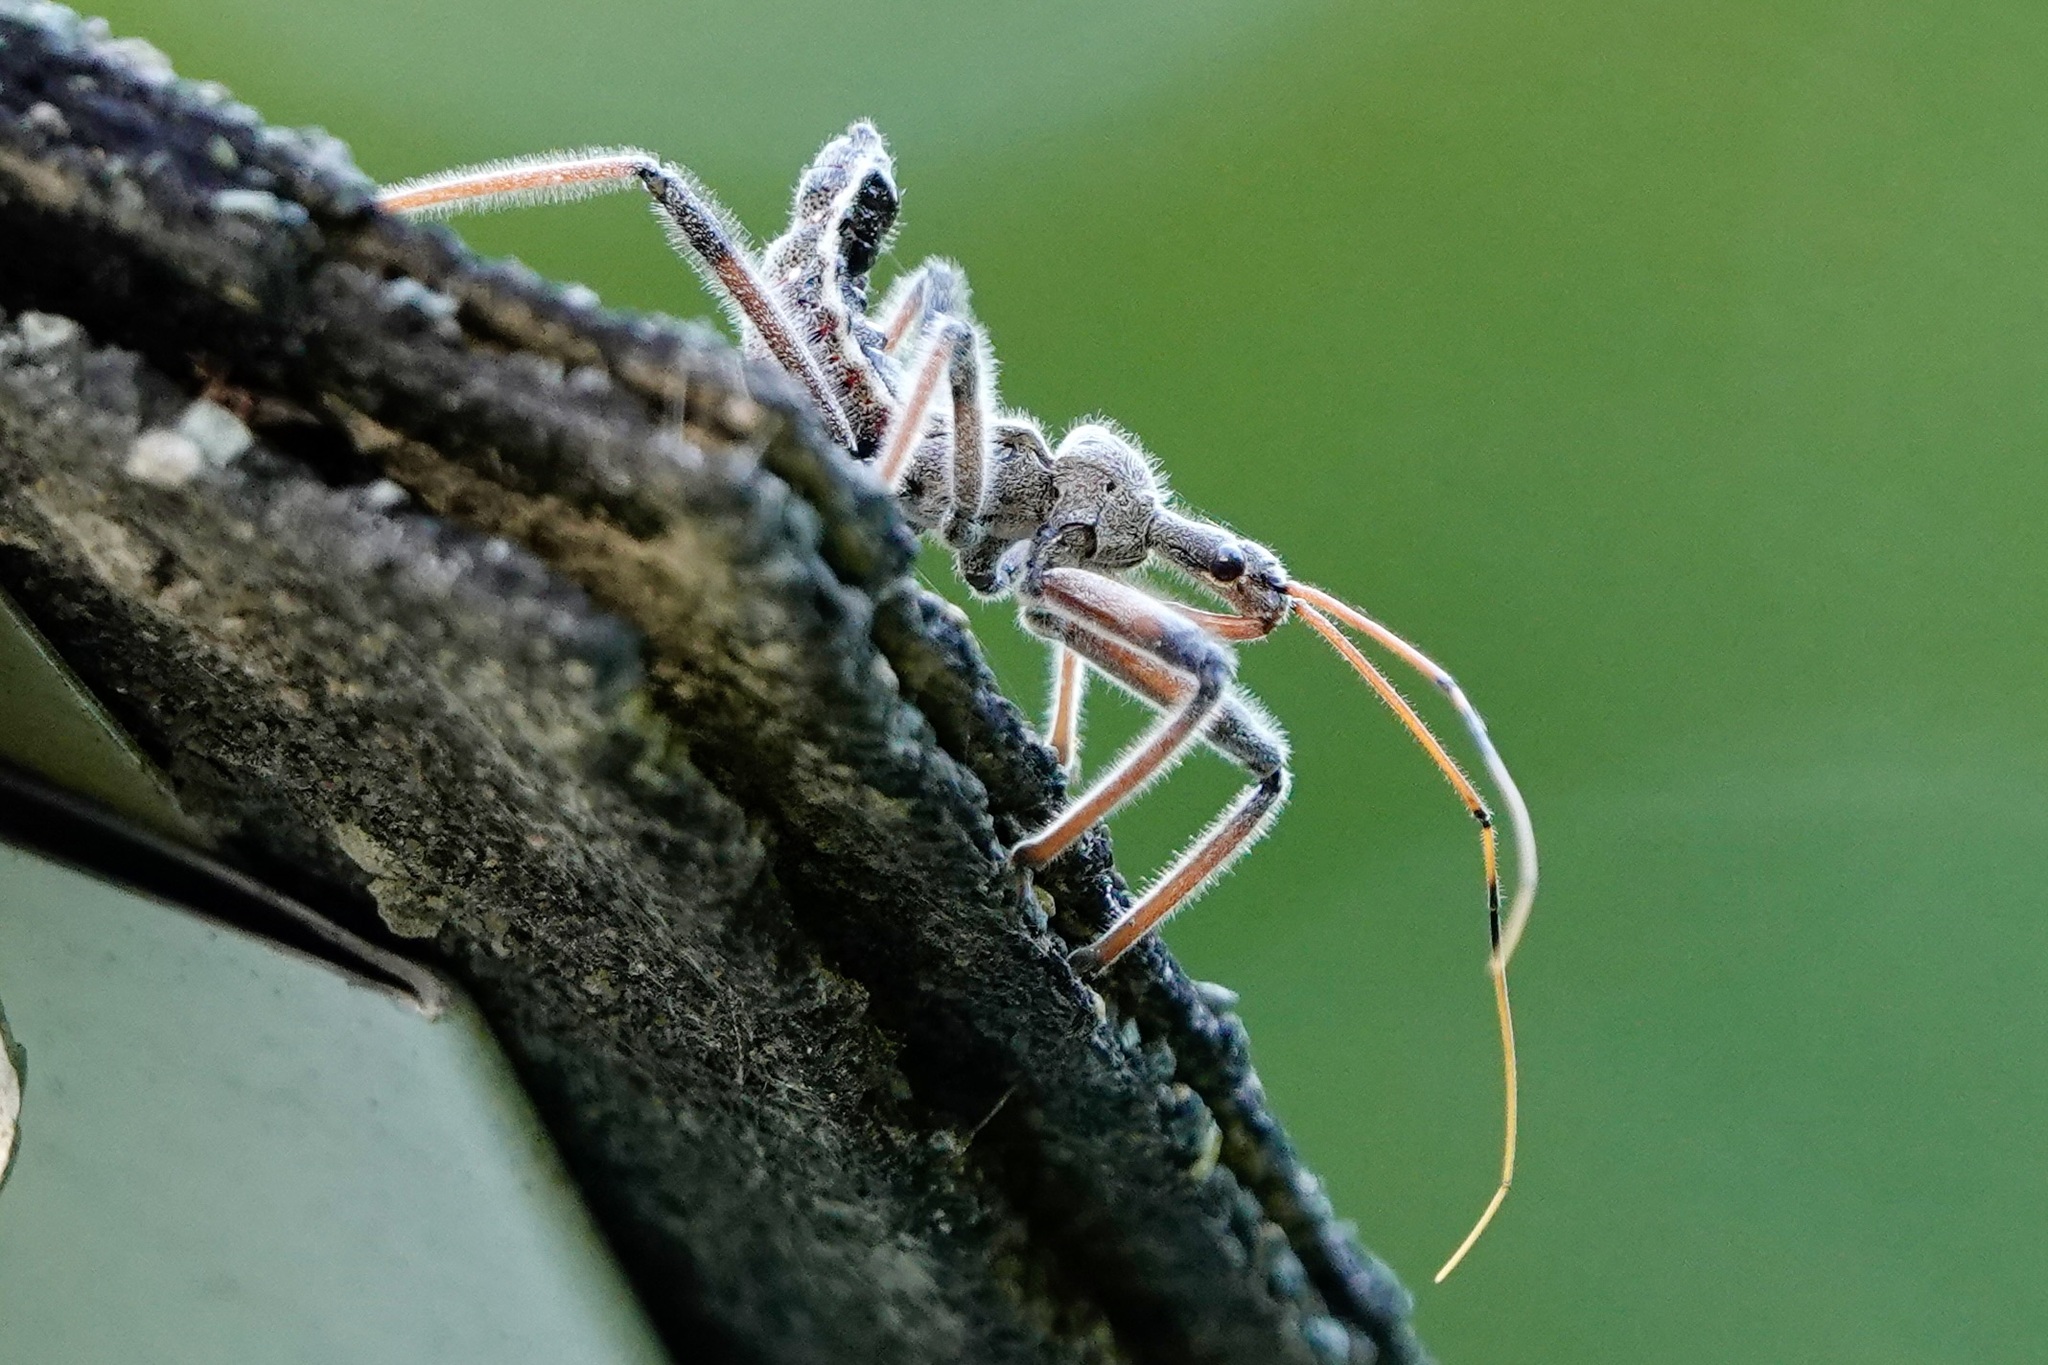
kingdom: Animalia
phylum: Arthropoda
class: Insecta
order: Hemiptera
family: Reduviidae
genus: Arilus
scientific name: Arilus cristatus
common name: North american wheel bug
